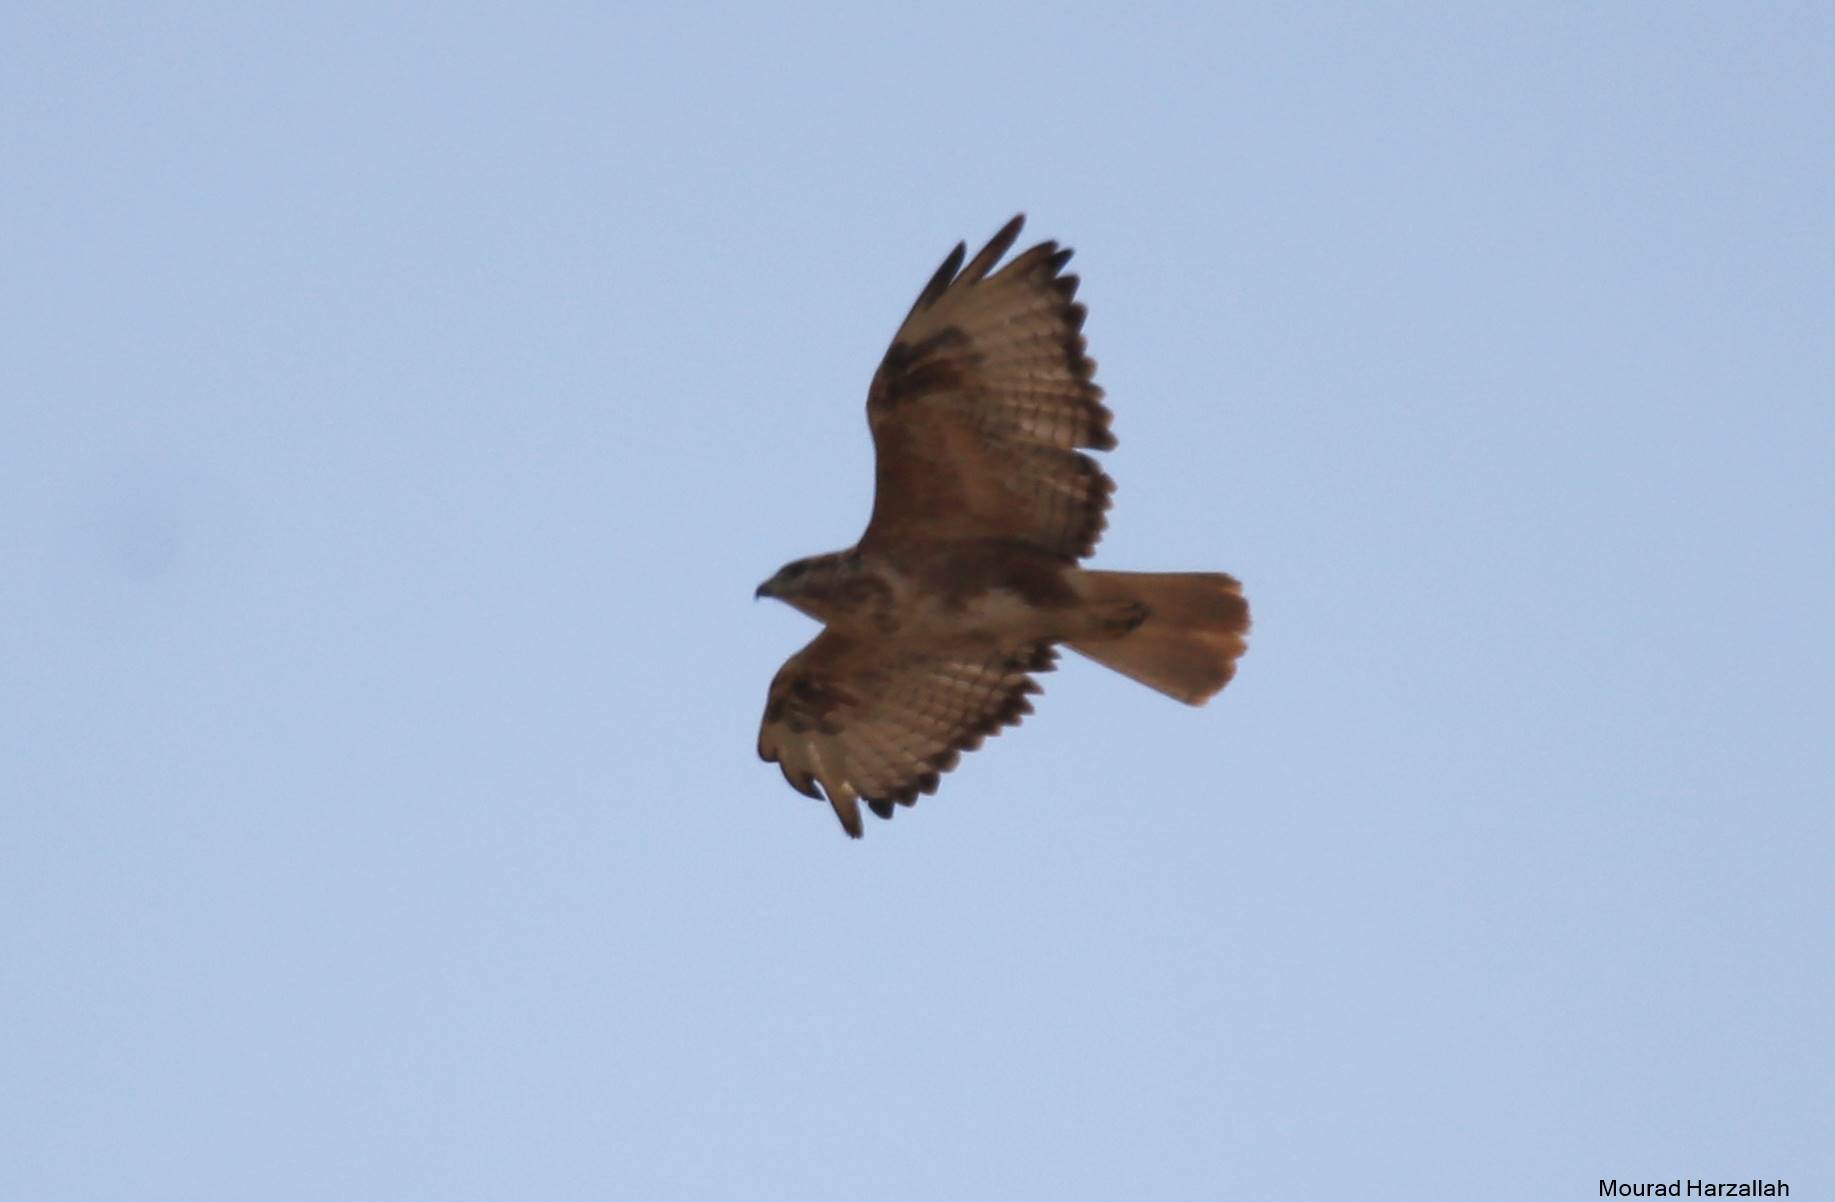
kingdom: Animalia
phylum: Chordata
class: Aves
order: Accipitriformes
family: Accipitridae
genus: Buteo
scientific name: Buteo rufinus
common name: Long-legged buzzard
